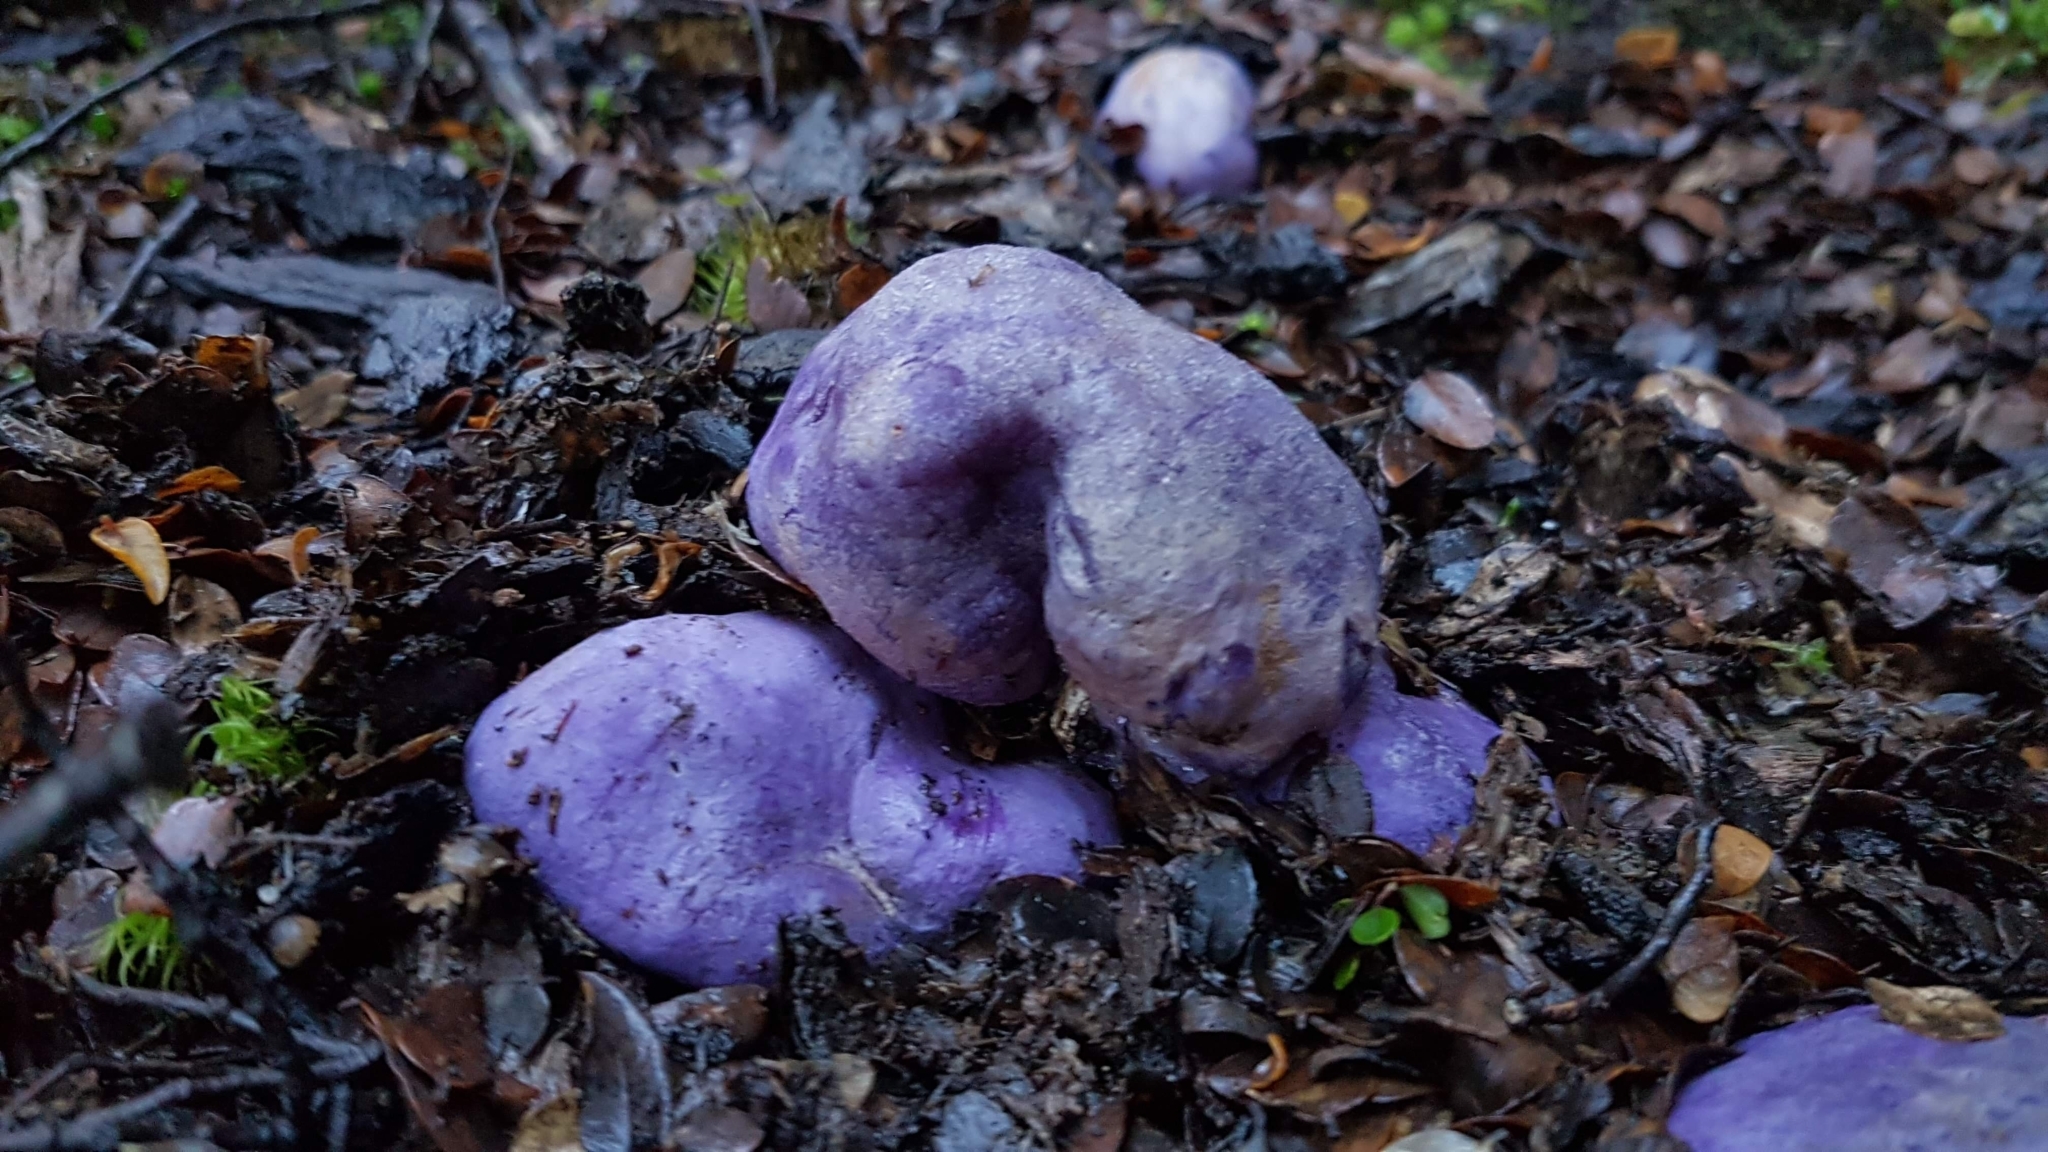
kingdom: Fungi
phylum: Basidiomycota
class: Agaricomycetes
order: Hysterangiales
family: Gallaceaceae
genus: Gallacea
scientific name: Gallacea scleroderma
